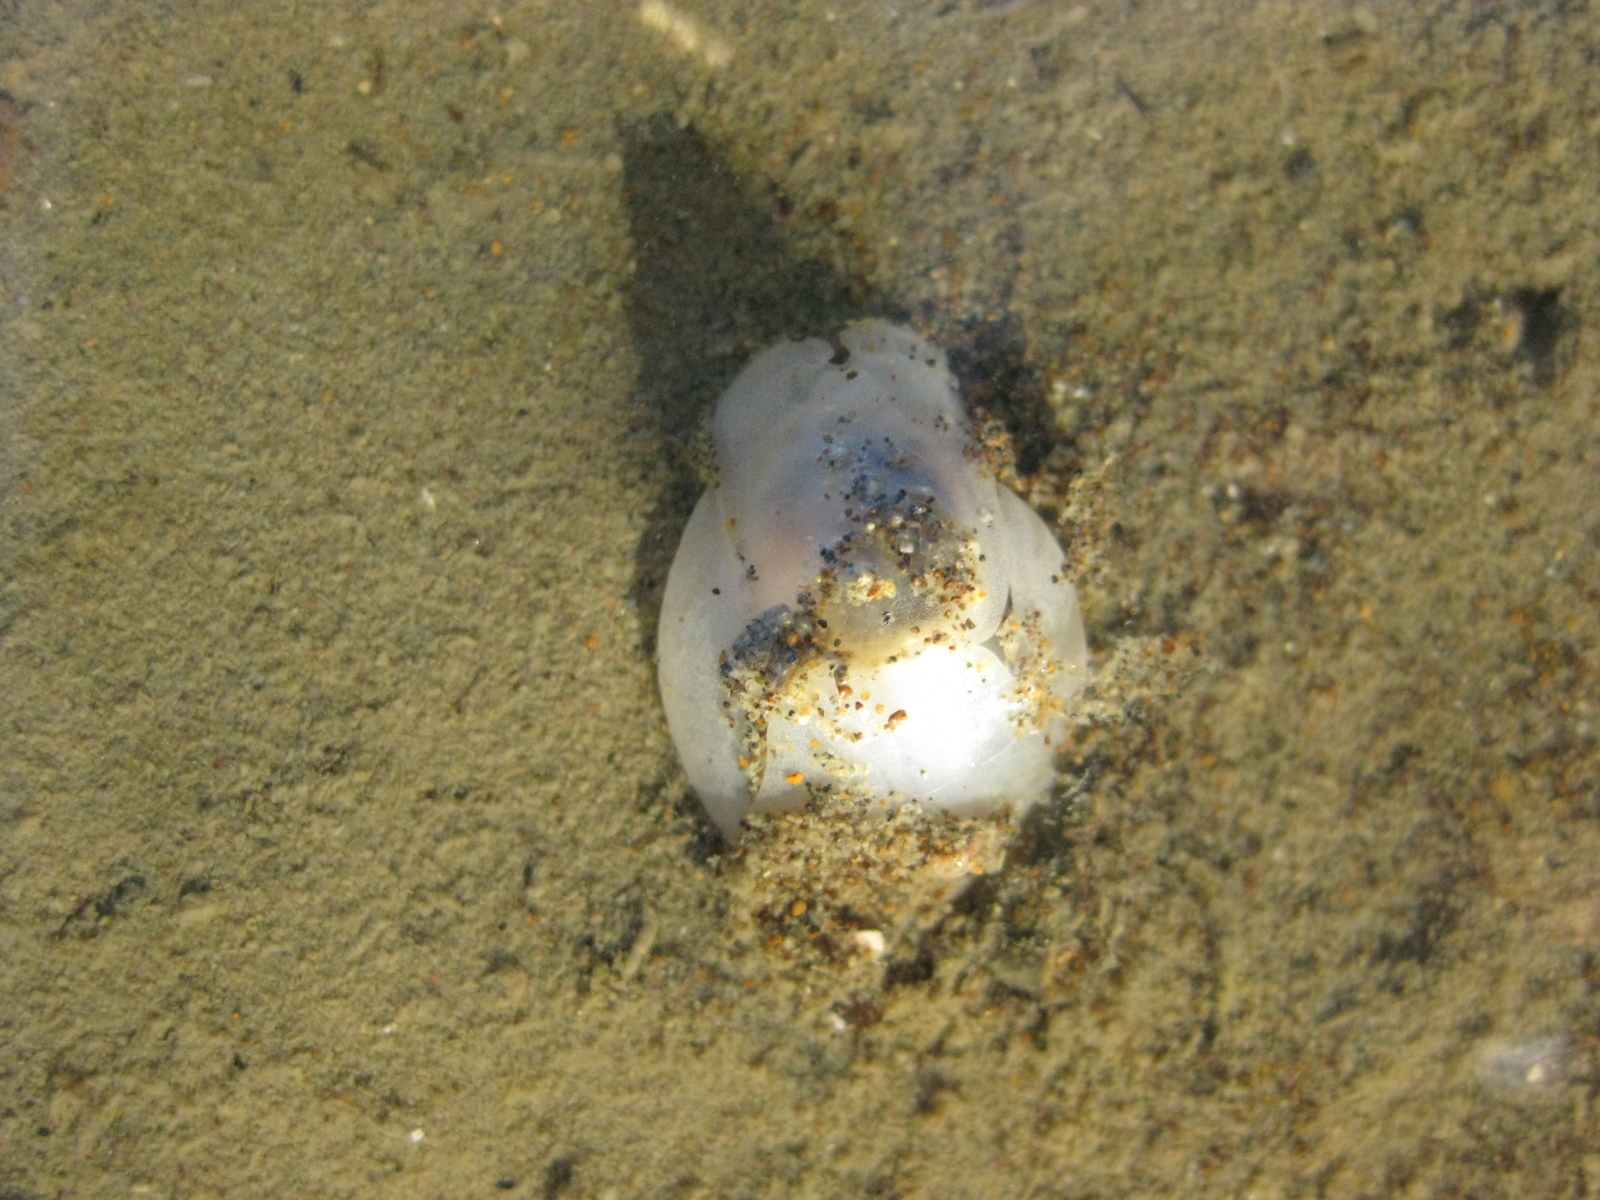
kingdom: Animalia
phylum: Mollusca
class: Gastropoda
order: Cephalaspidea
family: Philinidae
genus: Philine
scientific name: Philine auriformis
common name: Sea snail
